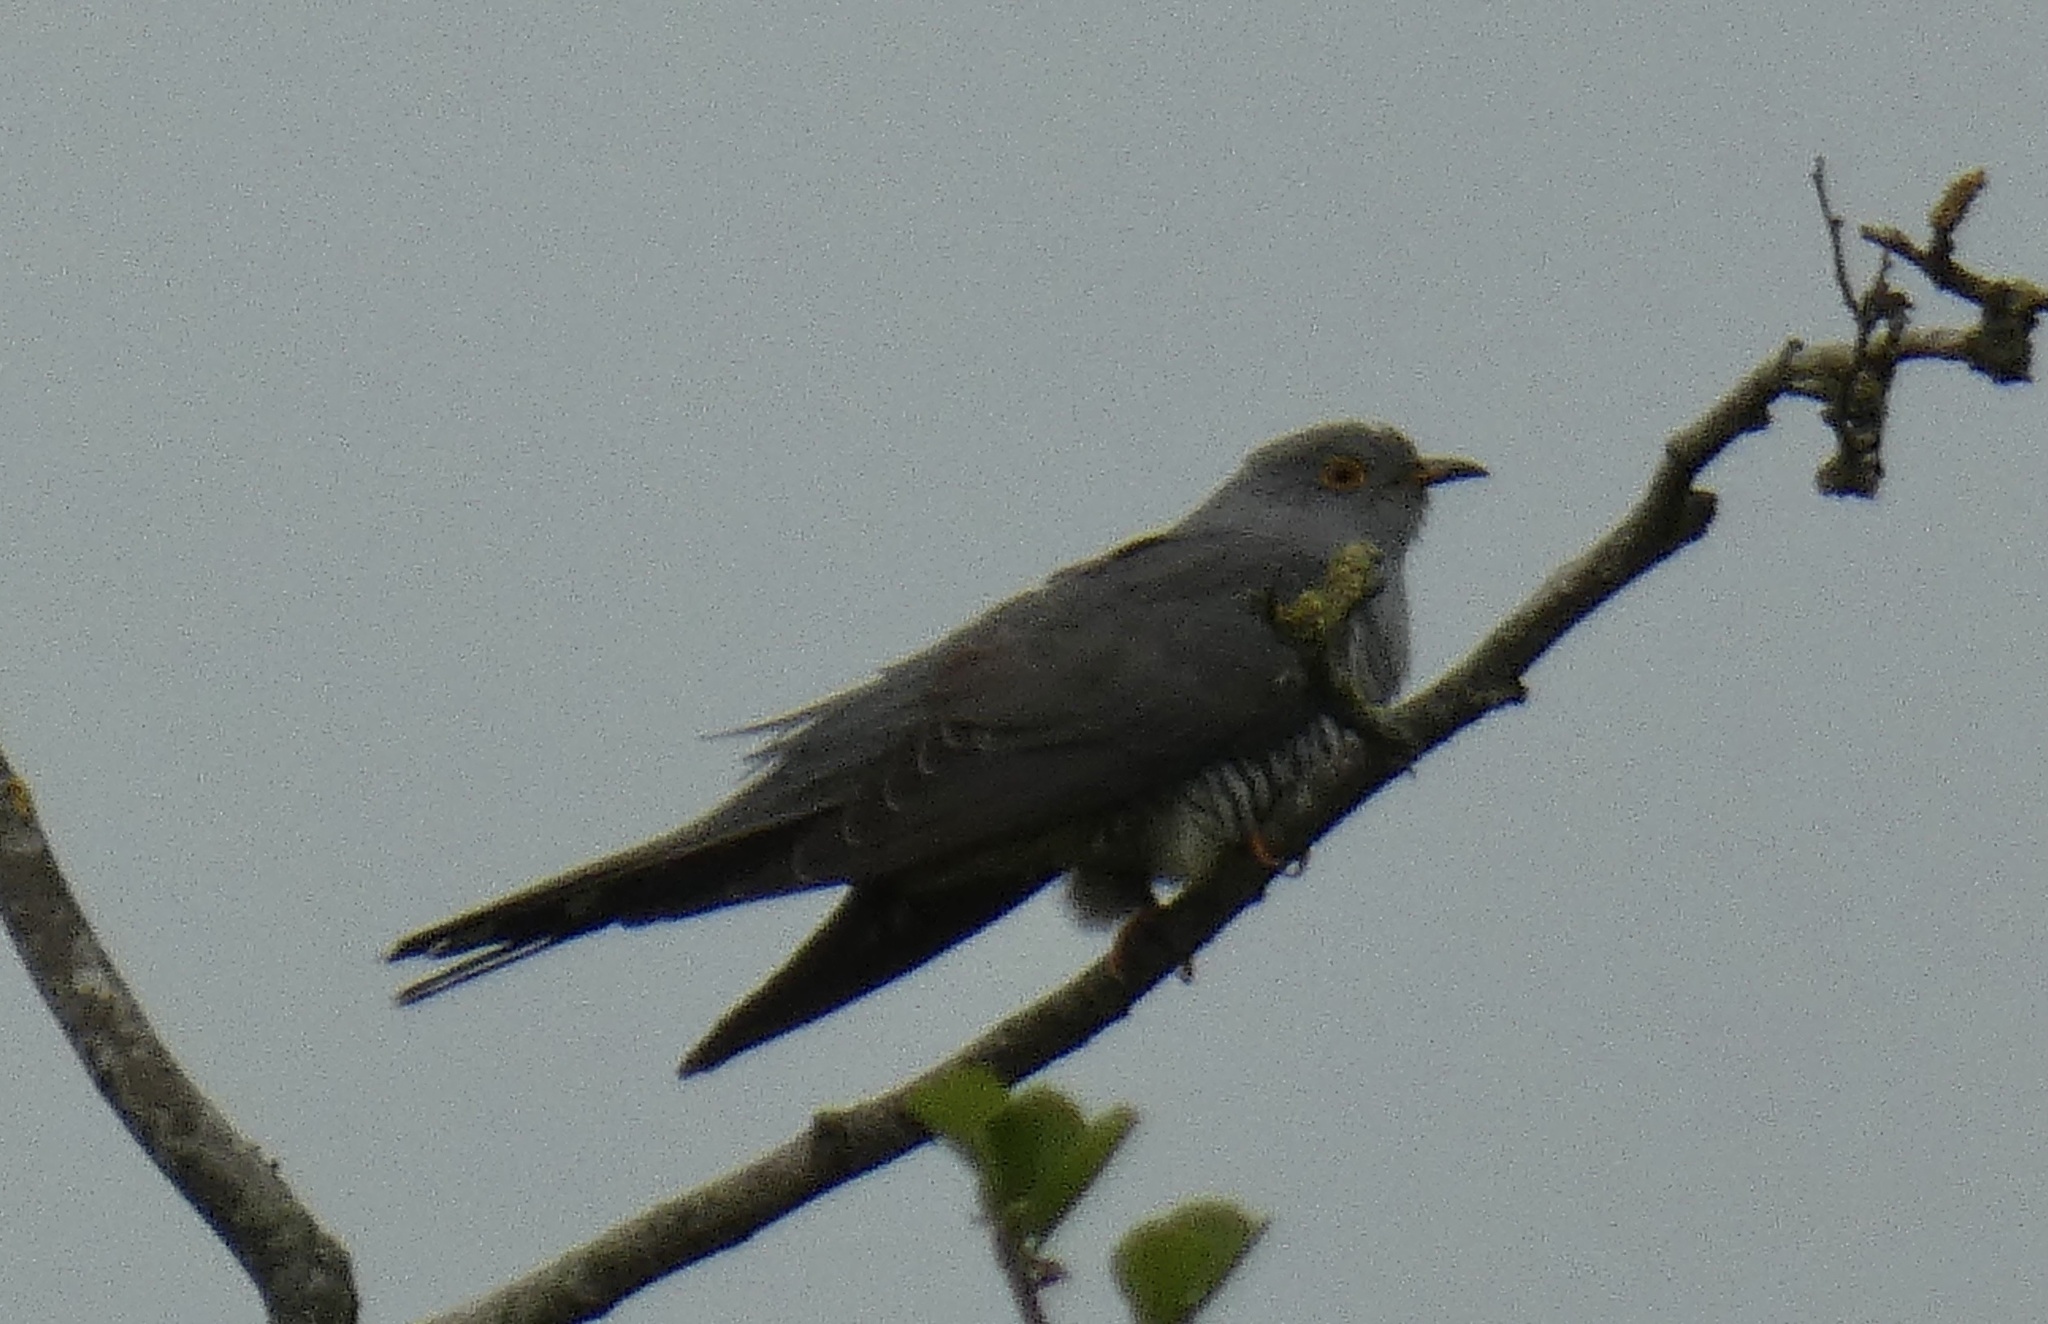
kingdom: Animalia
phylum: Chordata
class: Aves
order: Cuculiformes
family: Cuculidae
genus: Cuculus
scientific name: Cuculus canorus
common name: Common cuckoo
